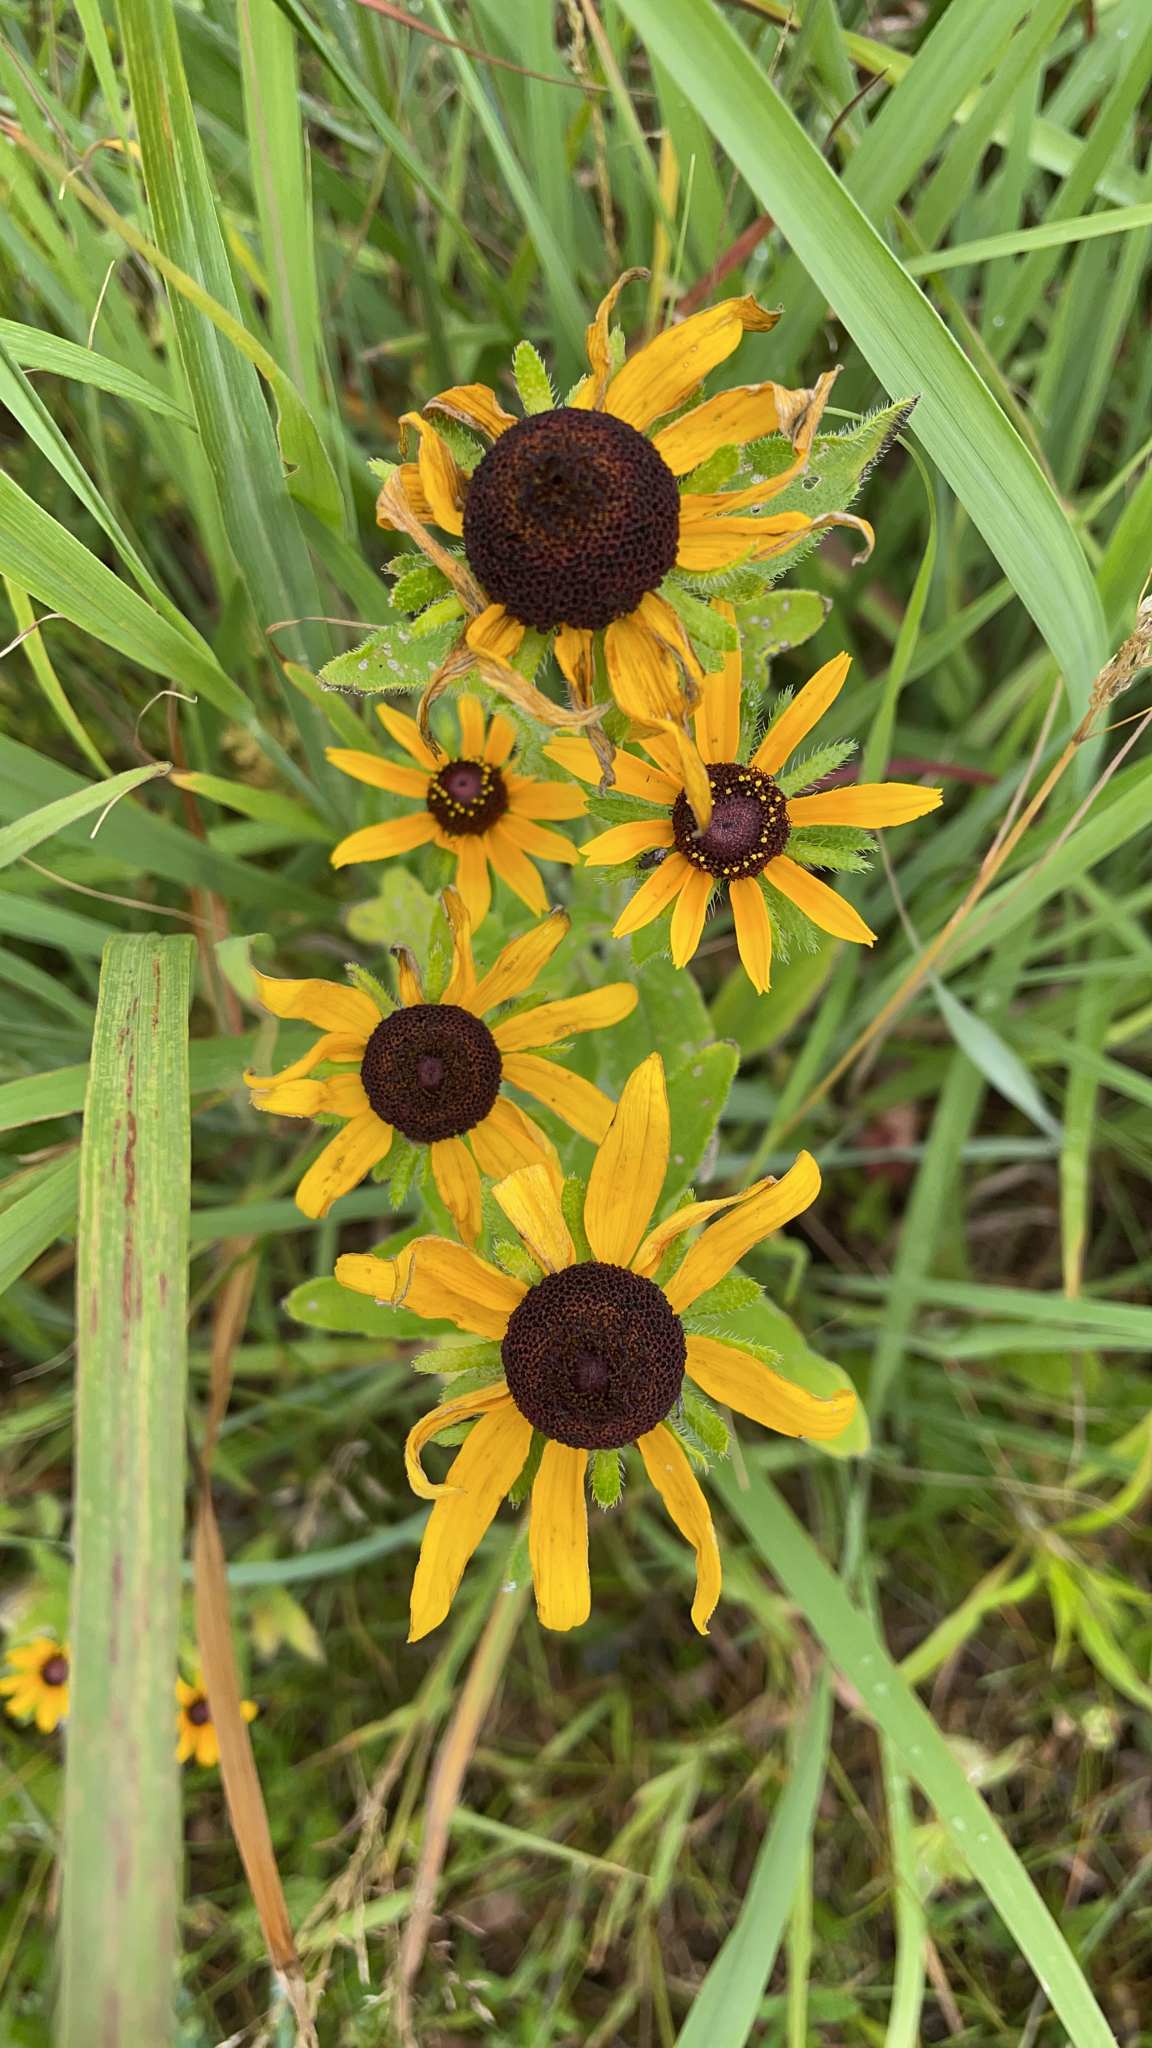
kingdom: Plantae
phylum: Tracheophyta
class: Magnoliopsida
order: Asterales
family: Asteraceae
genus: Rudbeckia
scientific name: Rudbeckia hirta
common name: Black-eyed-susan
